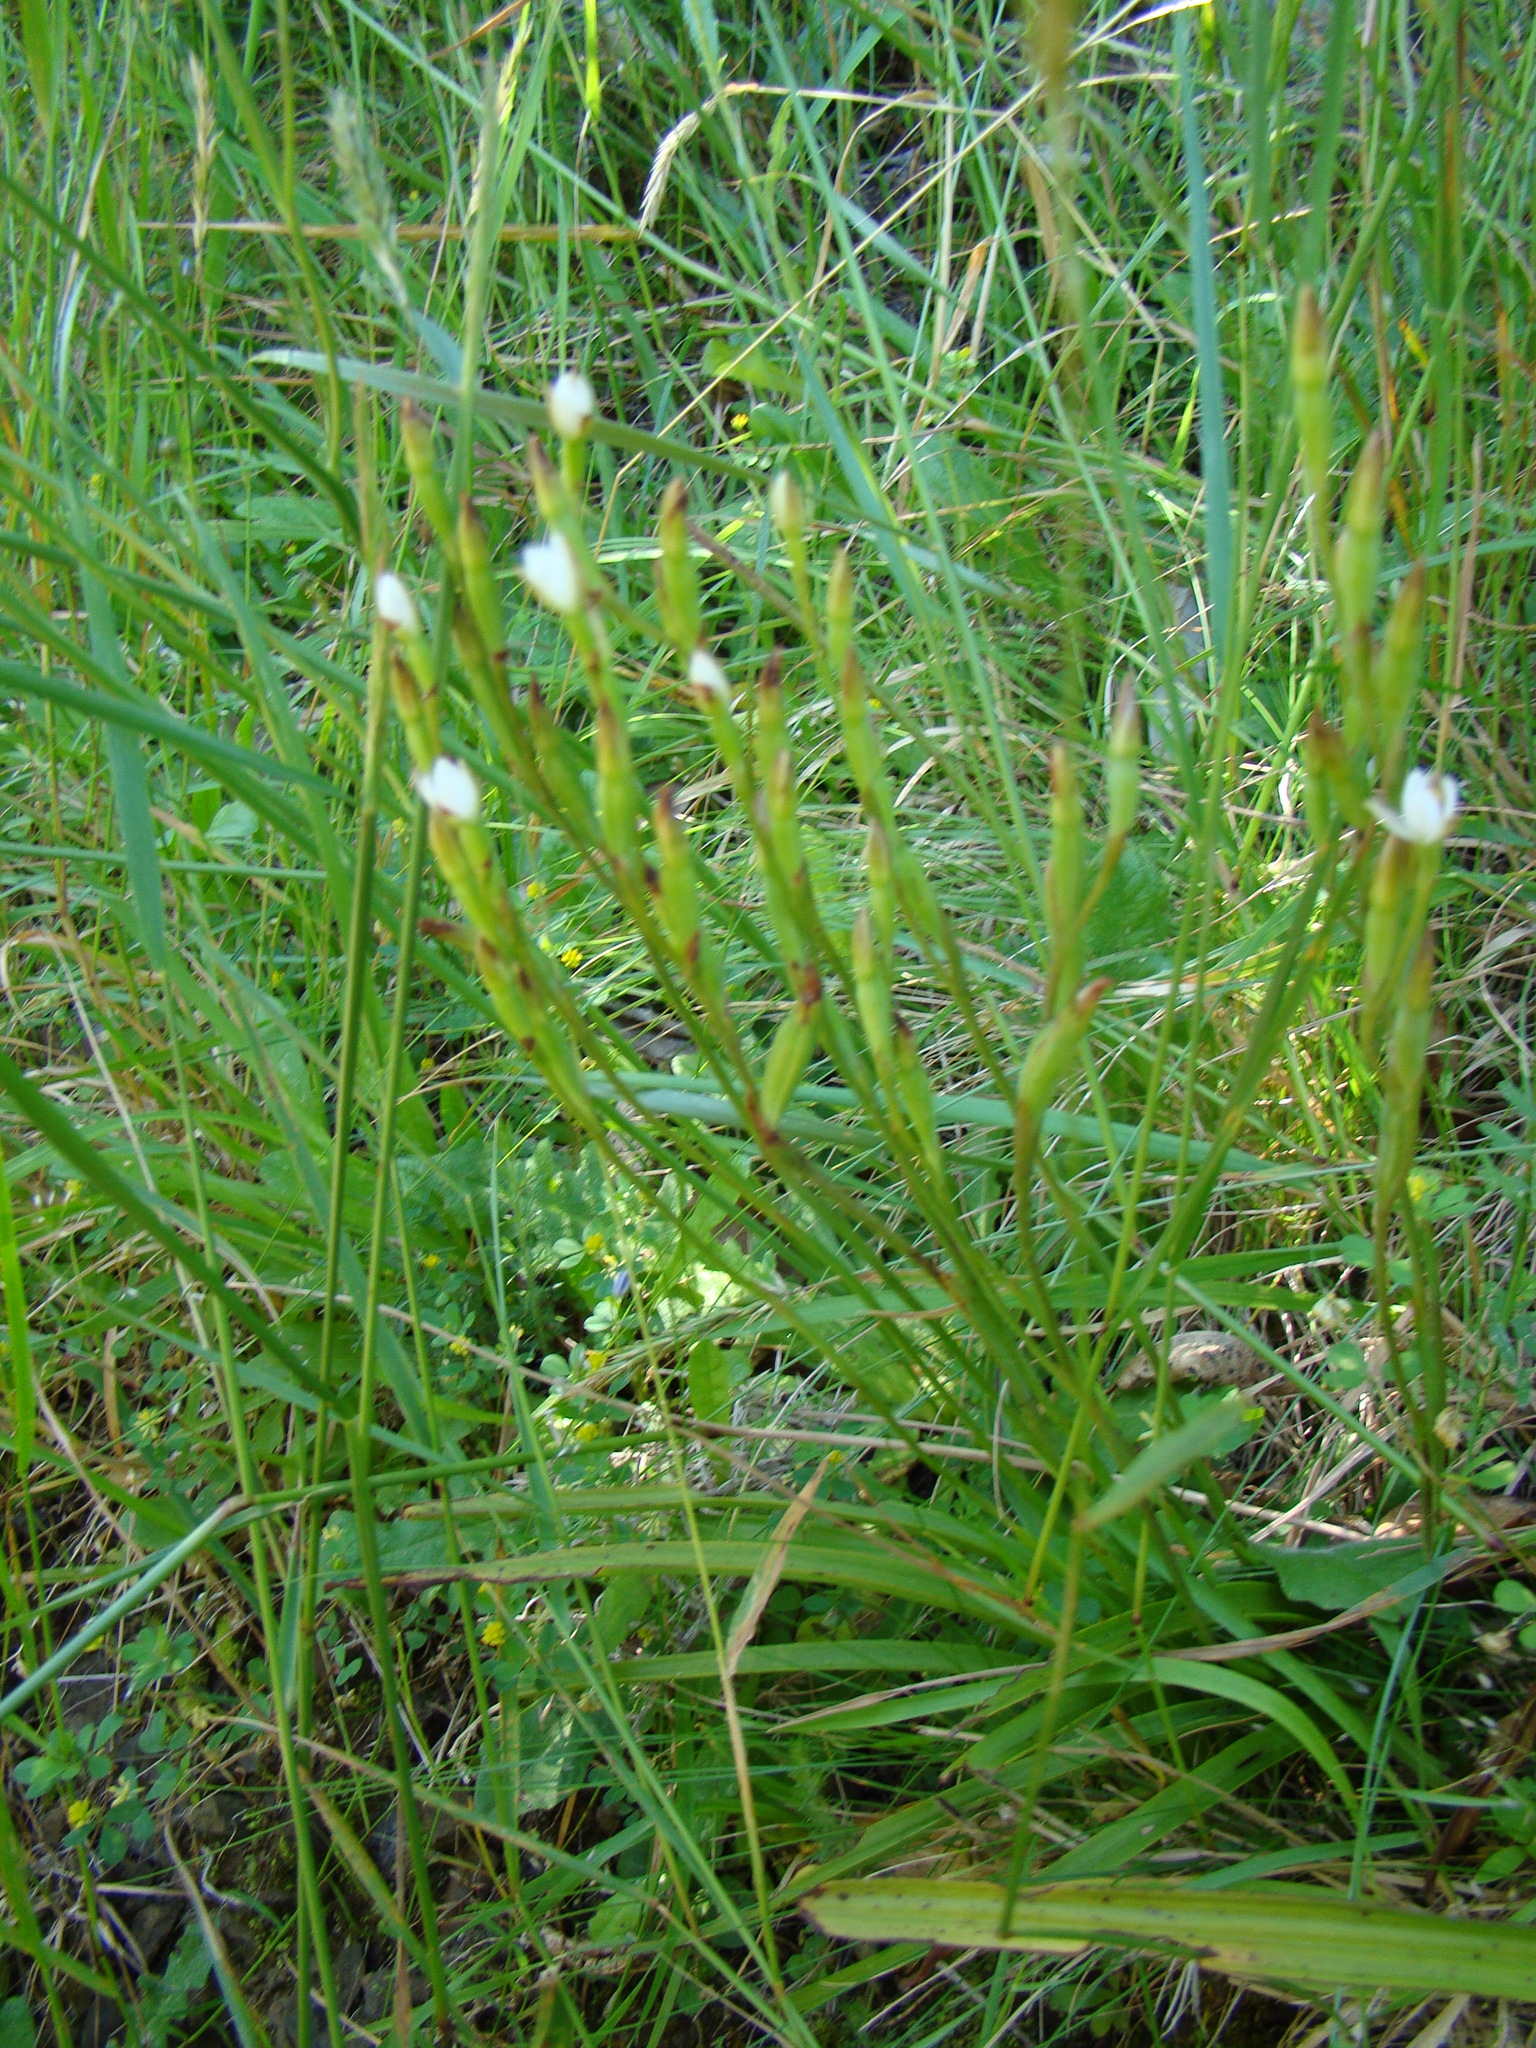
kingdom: Plantae
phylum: Tracheophyta
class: Liliopsida
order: Asparagales
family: Orchidaceae
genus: Thelymitra
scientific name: Thelymitra longifolia
